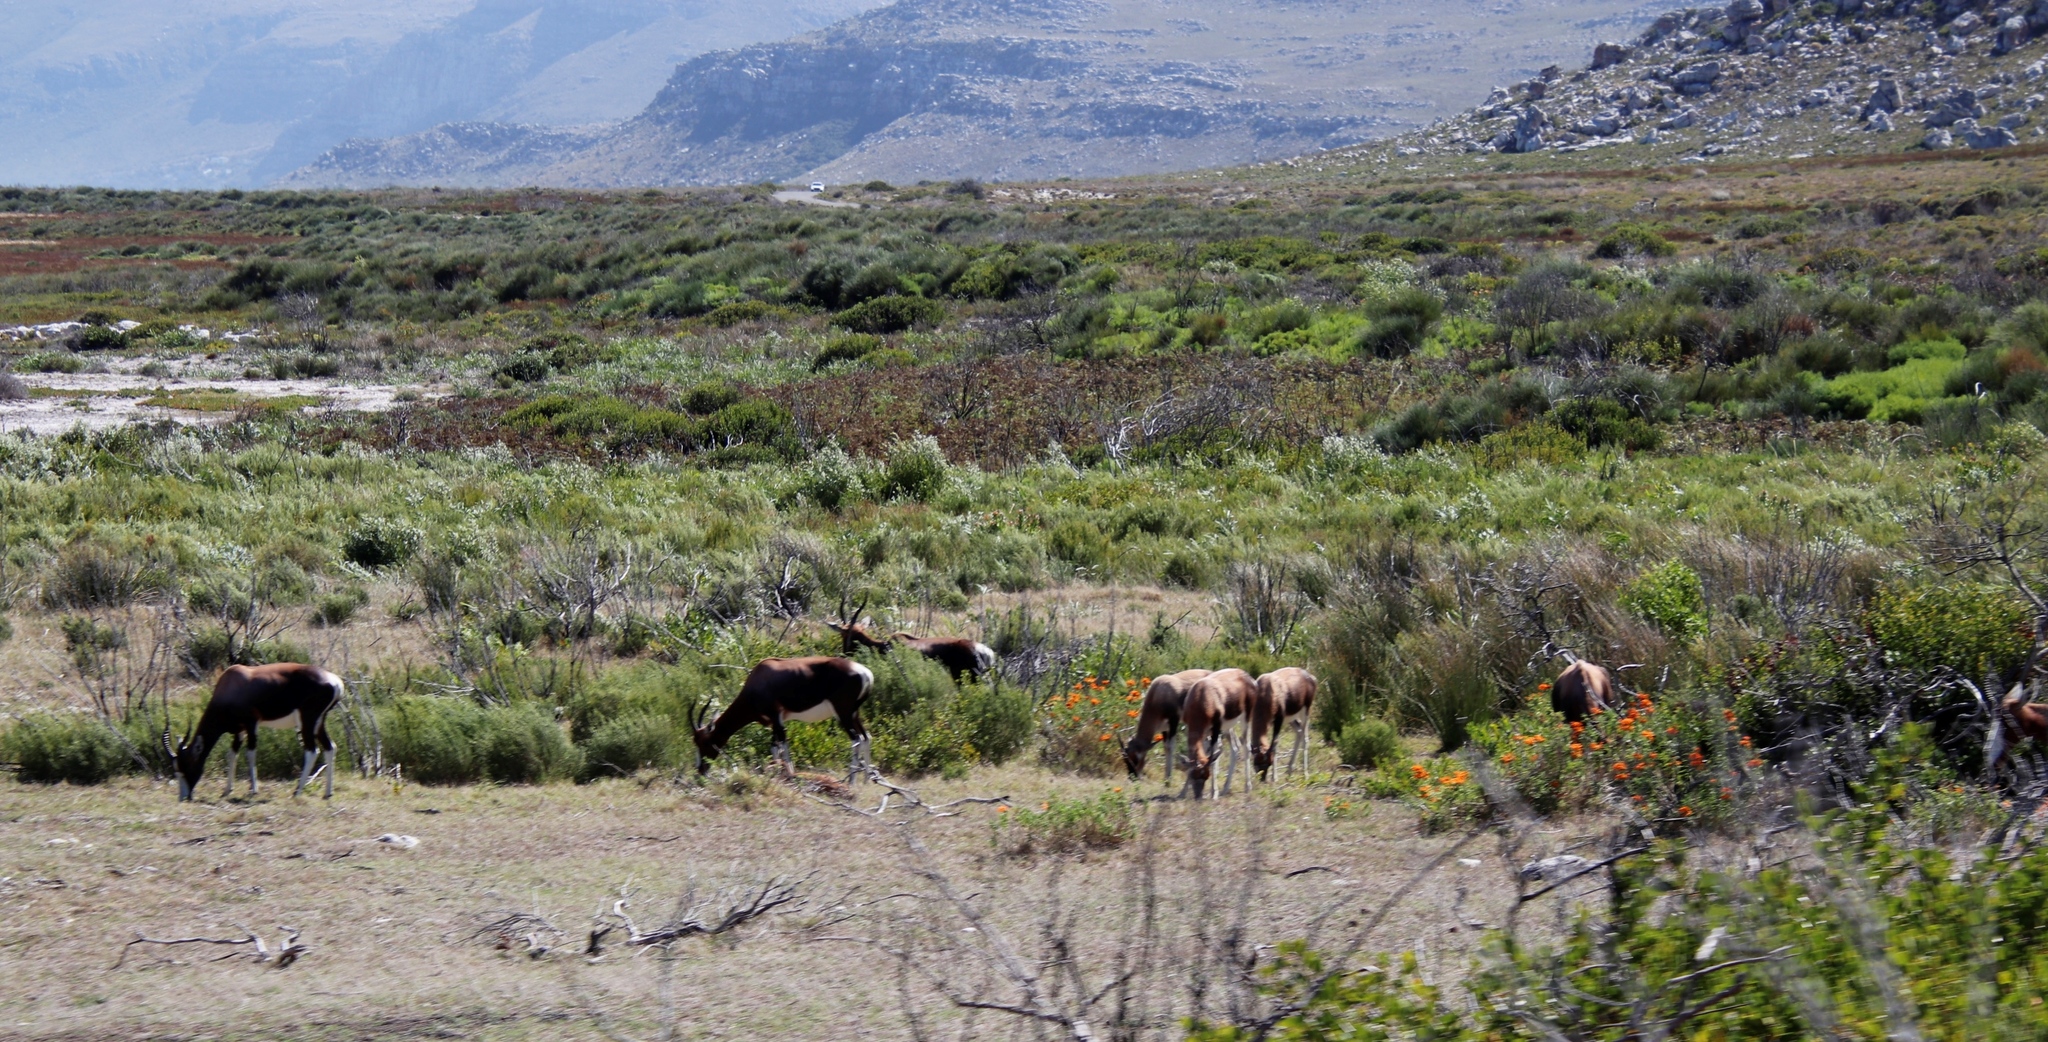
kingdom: Animalia
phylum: Chordata
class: Mammalia
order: Artiodactyla
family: Bovidae
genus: Damaliscus
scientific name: Damaliscus pygargus
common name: Bontebok
